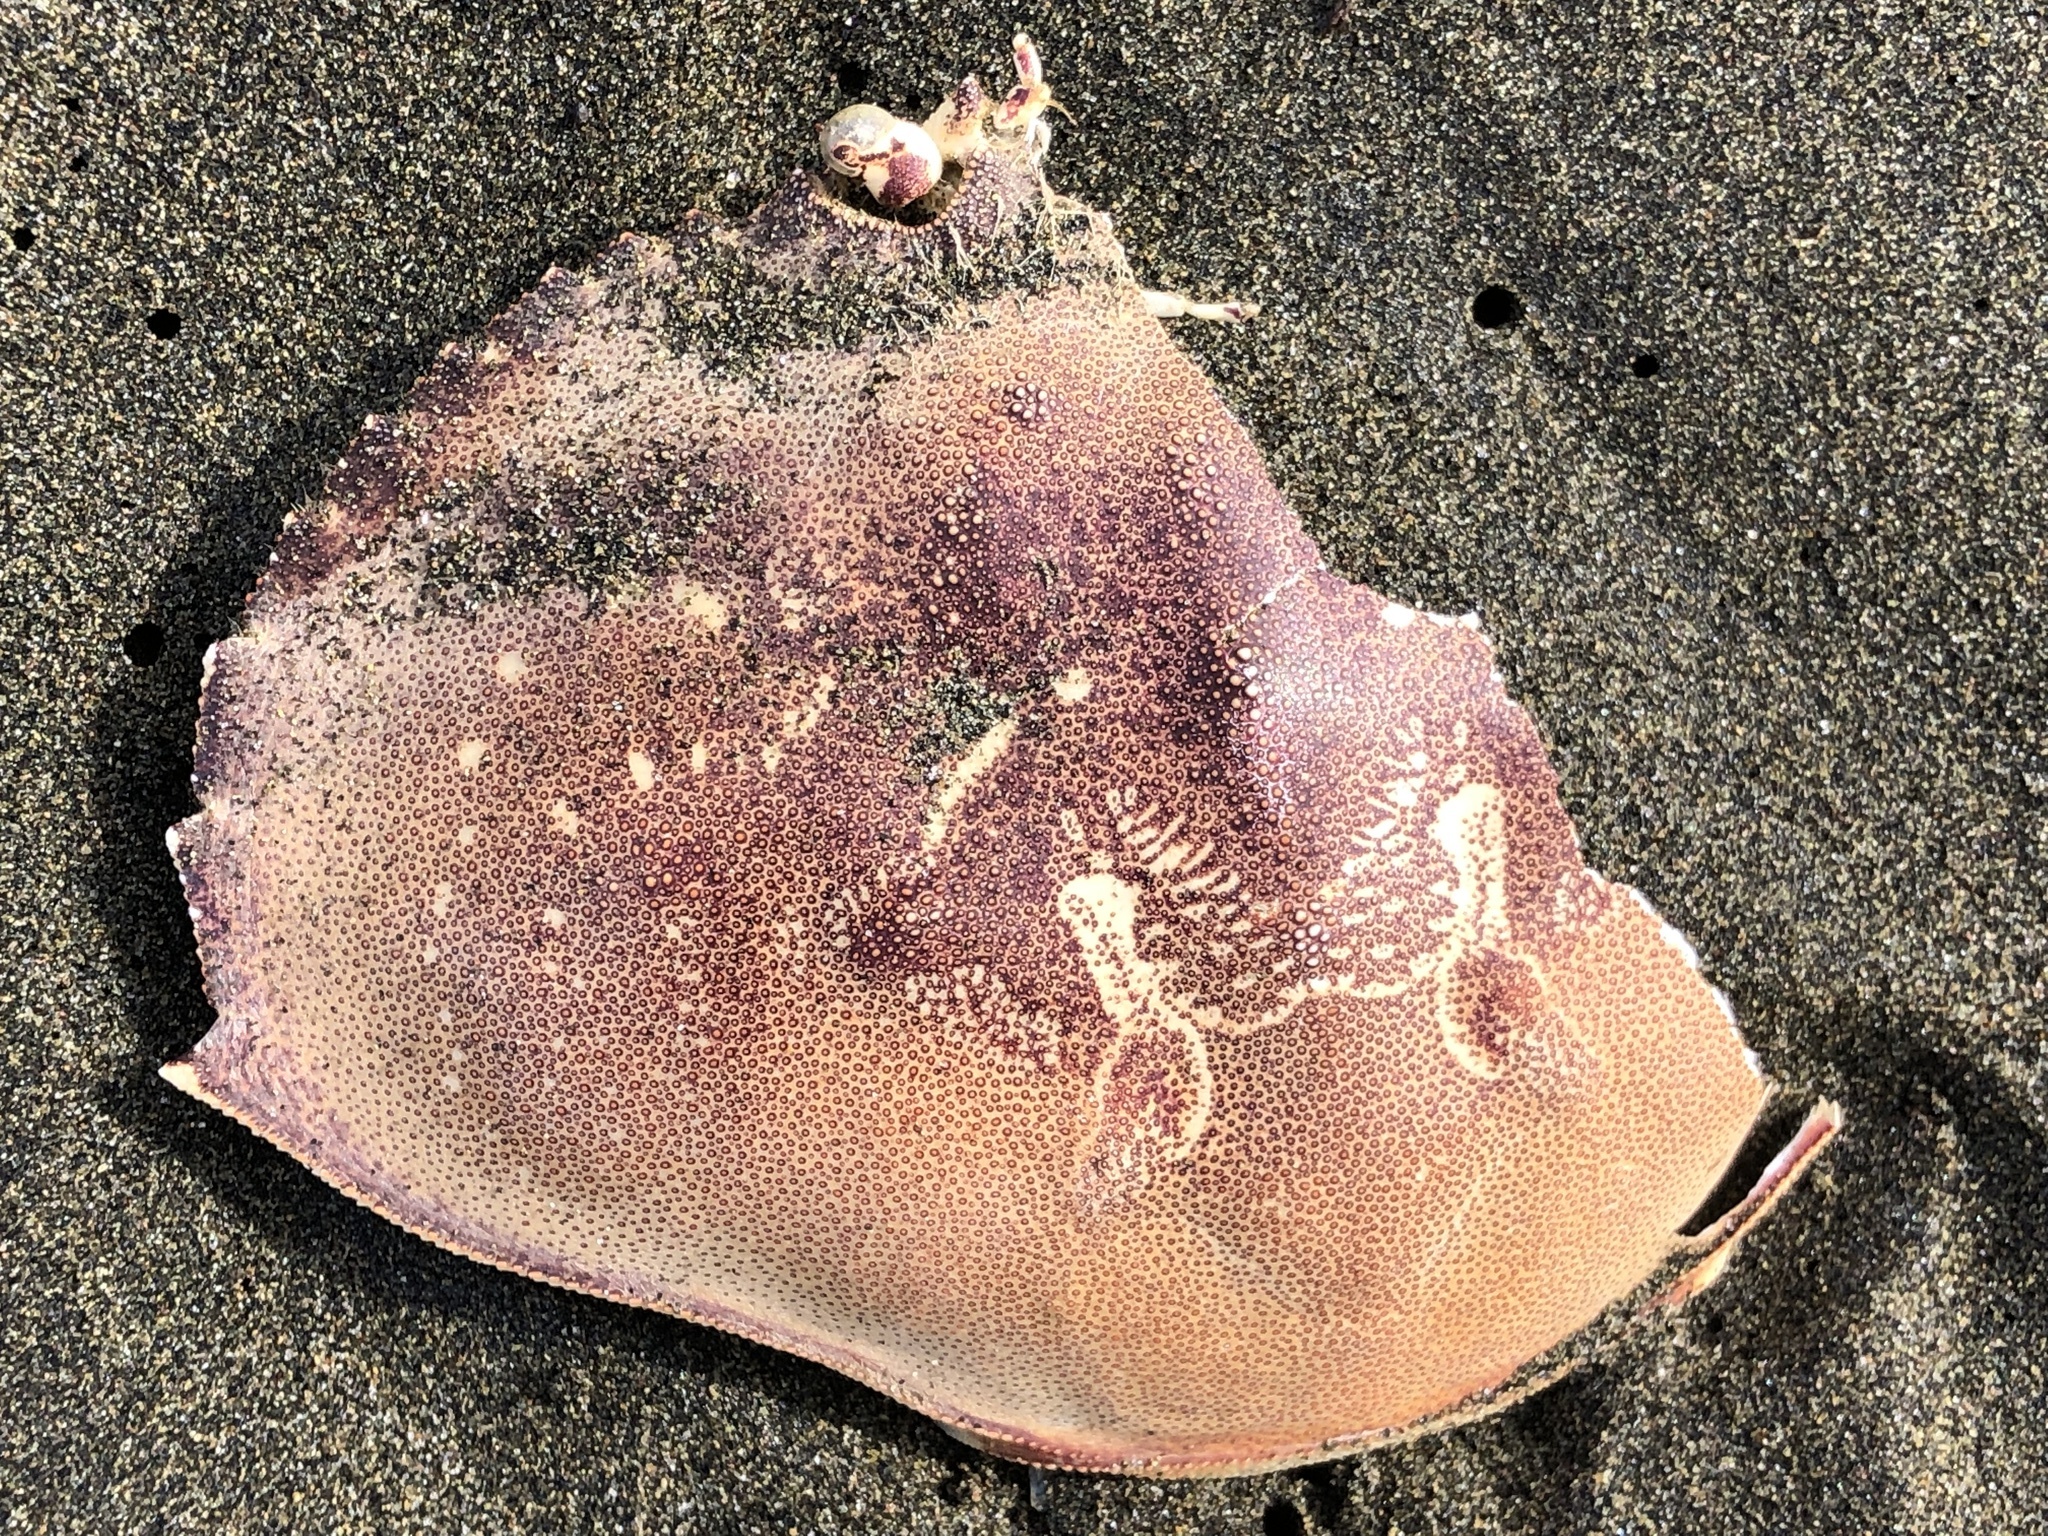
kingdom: Animalia
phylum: Arthropoda
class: Malacostraca
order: Decapoda
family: Cancridae
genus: Metacarcinus
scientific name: Metacarcinus magister
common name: Californian crab
